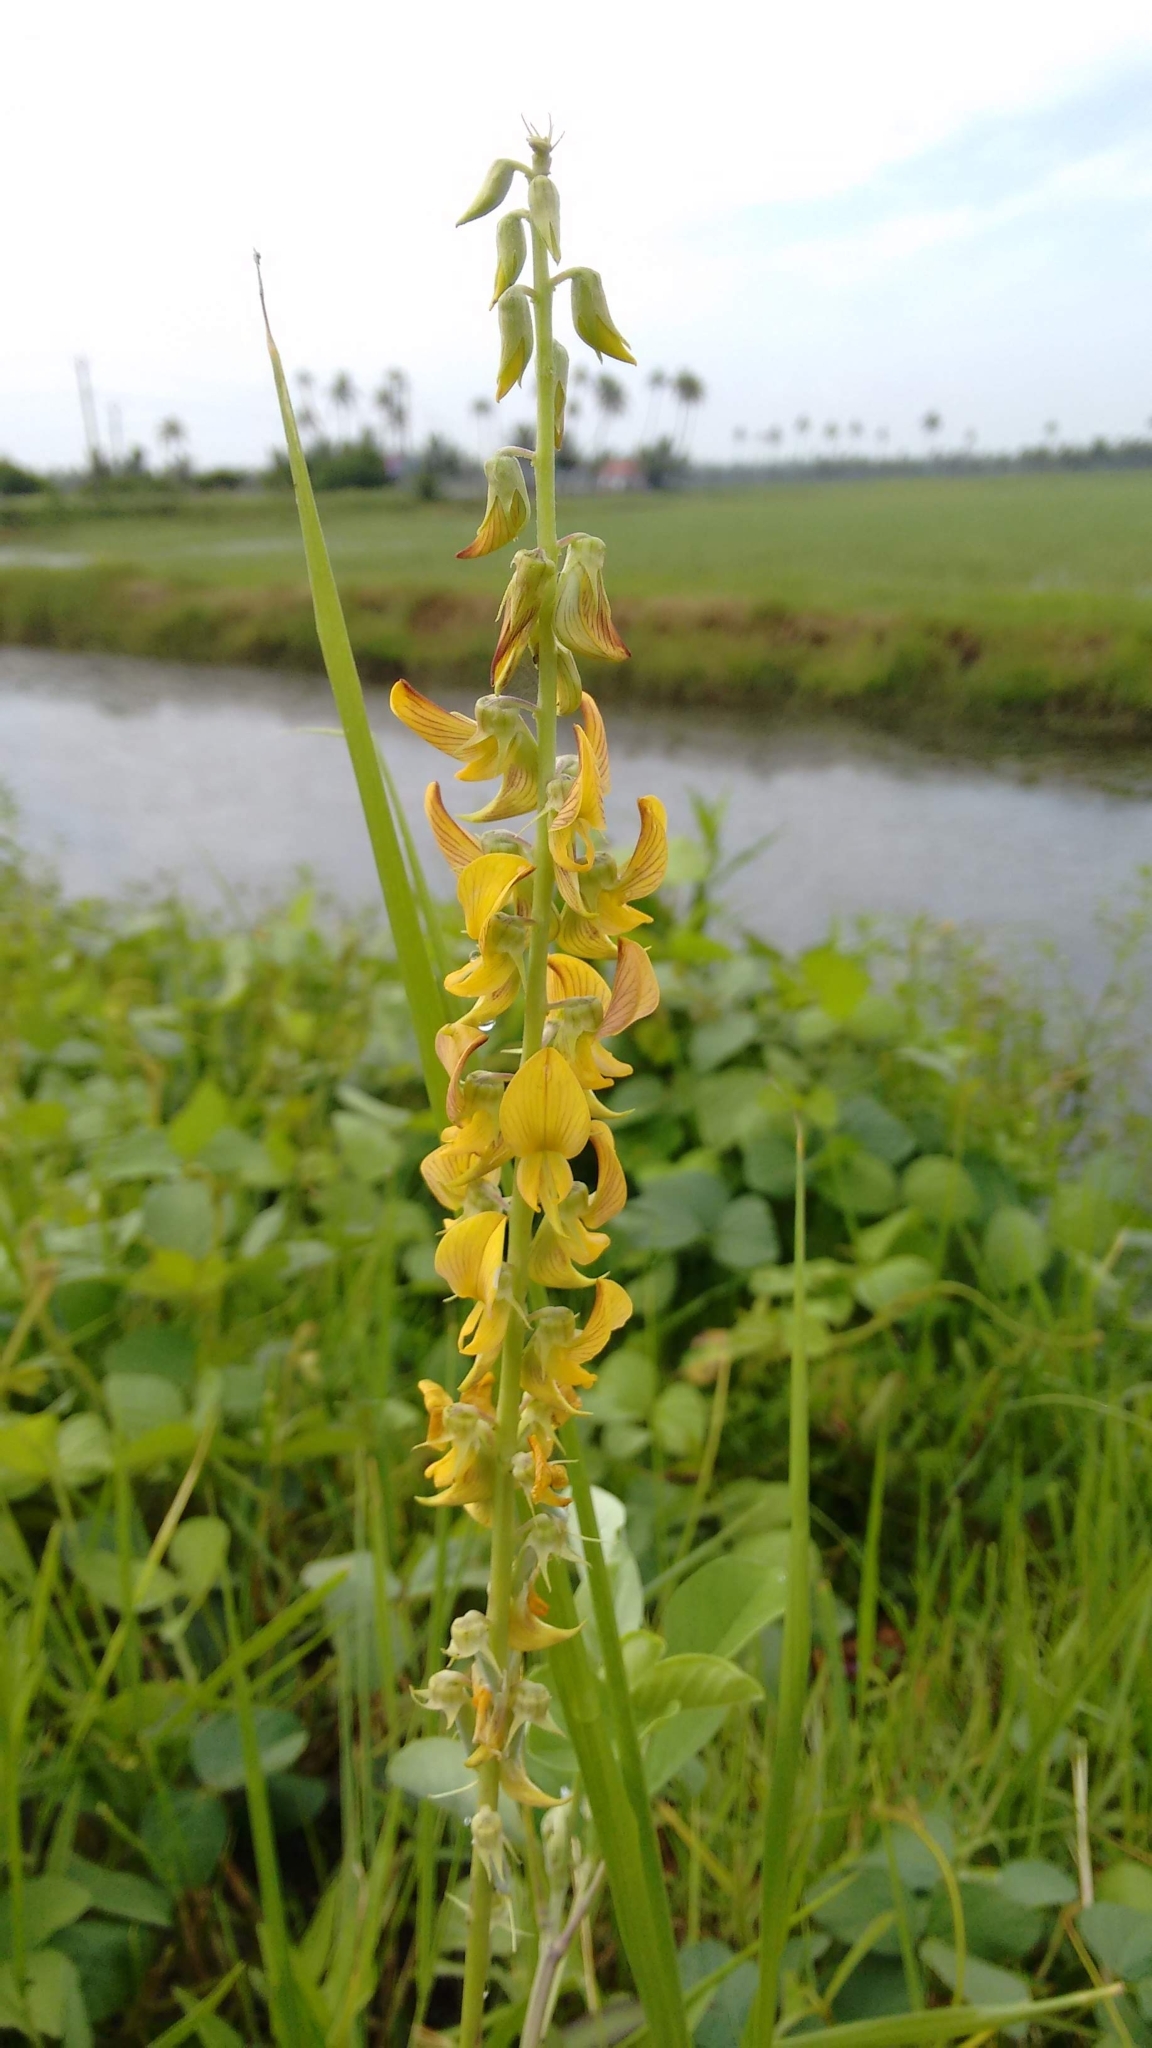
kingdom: Plantae
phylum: Tracheophyta
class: Magnoliopsida
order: Fabales
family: Fabaceae
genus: Crotalaria
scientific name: Crotalaria pallida
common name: Smooth rattlebox
